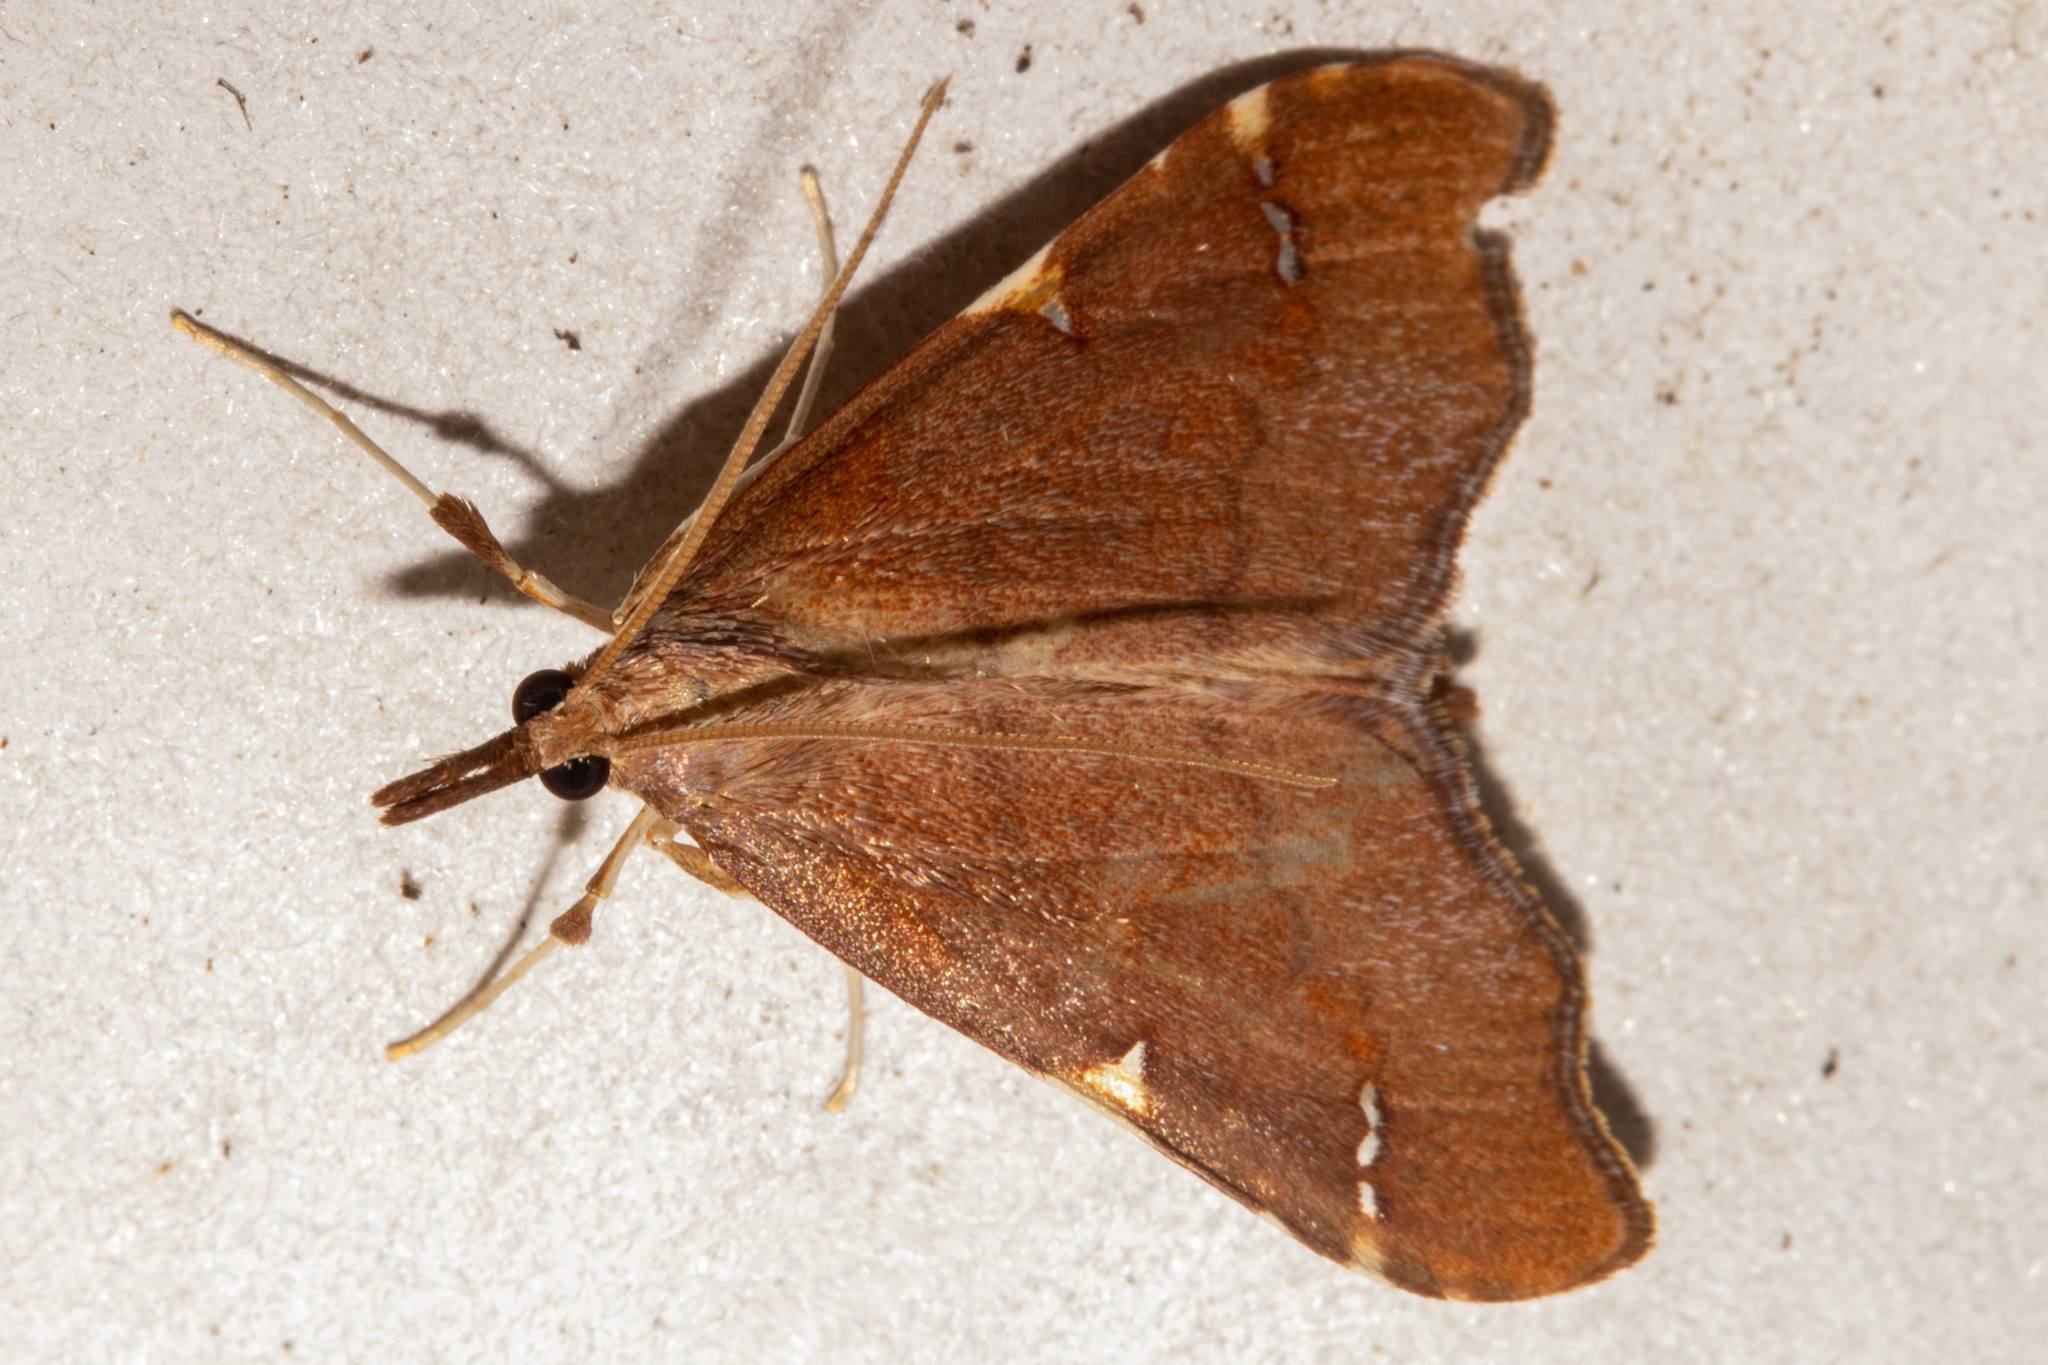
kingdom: Animalia
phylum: Arthropoda
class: Insecta
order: Lepidoptera
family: Crambidae
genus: Deana
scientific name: Deana hybreasalis
